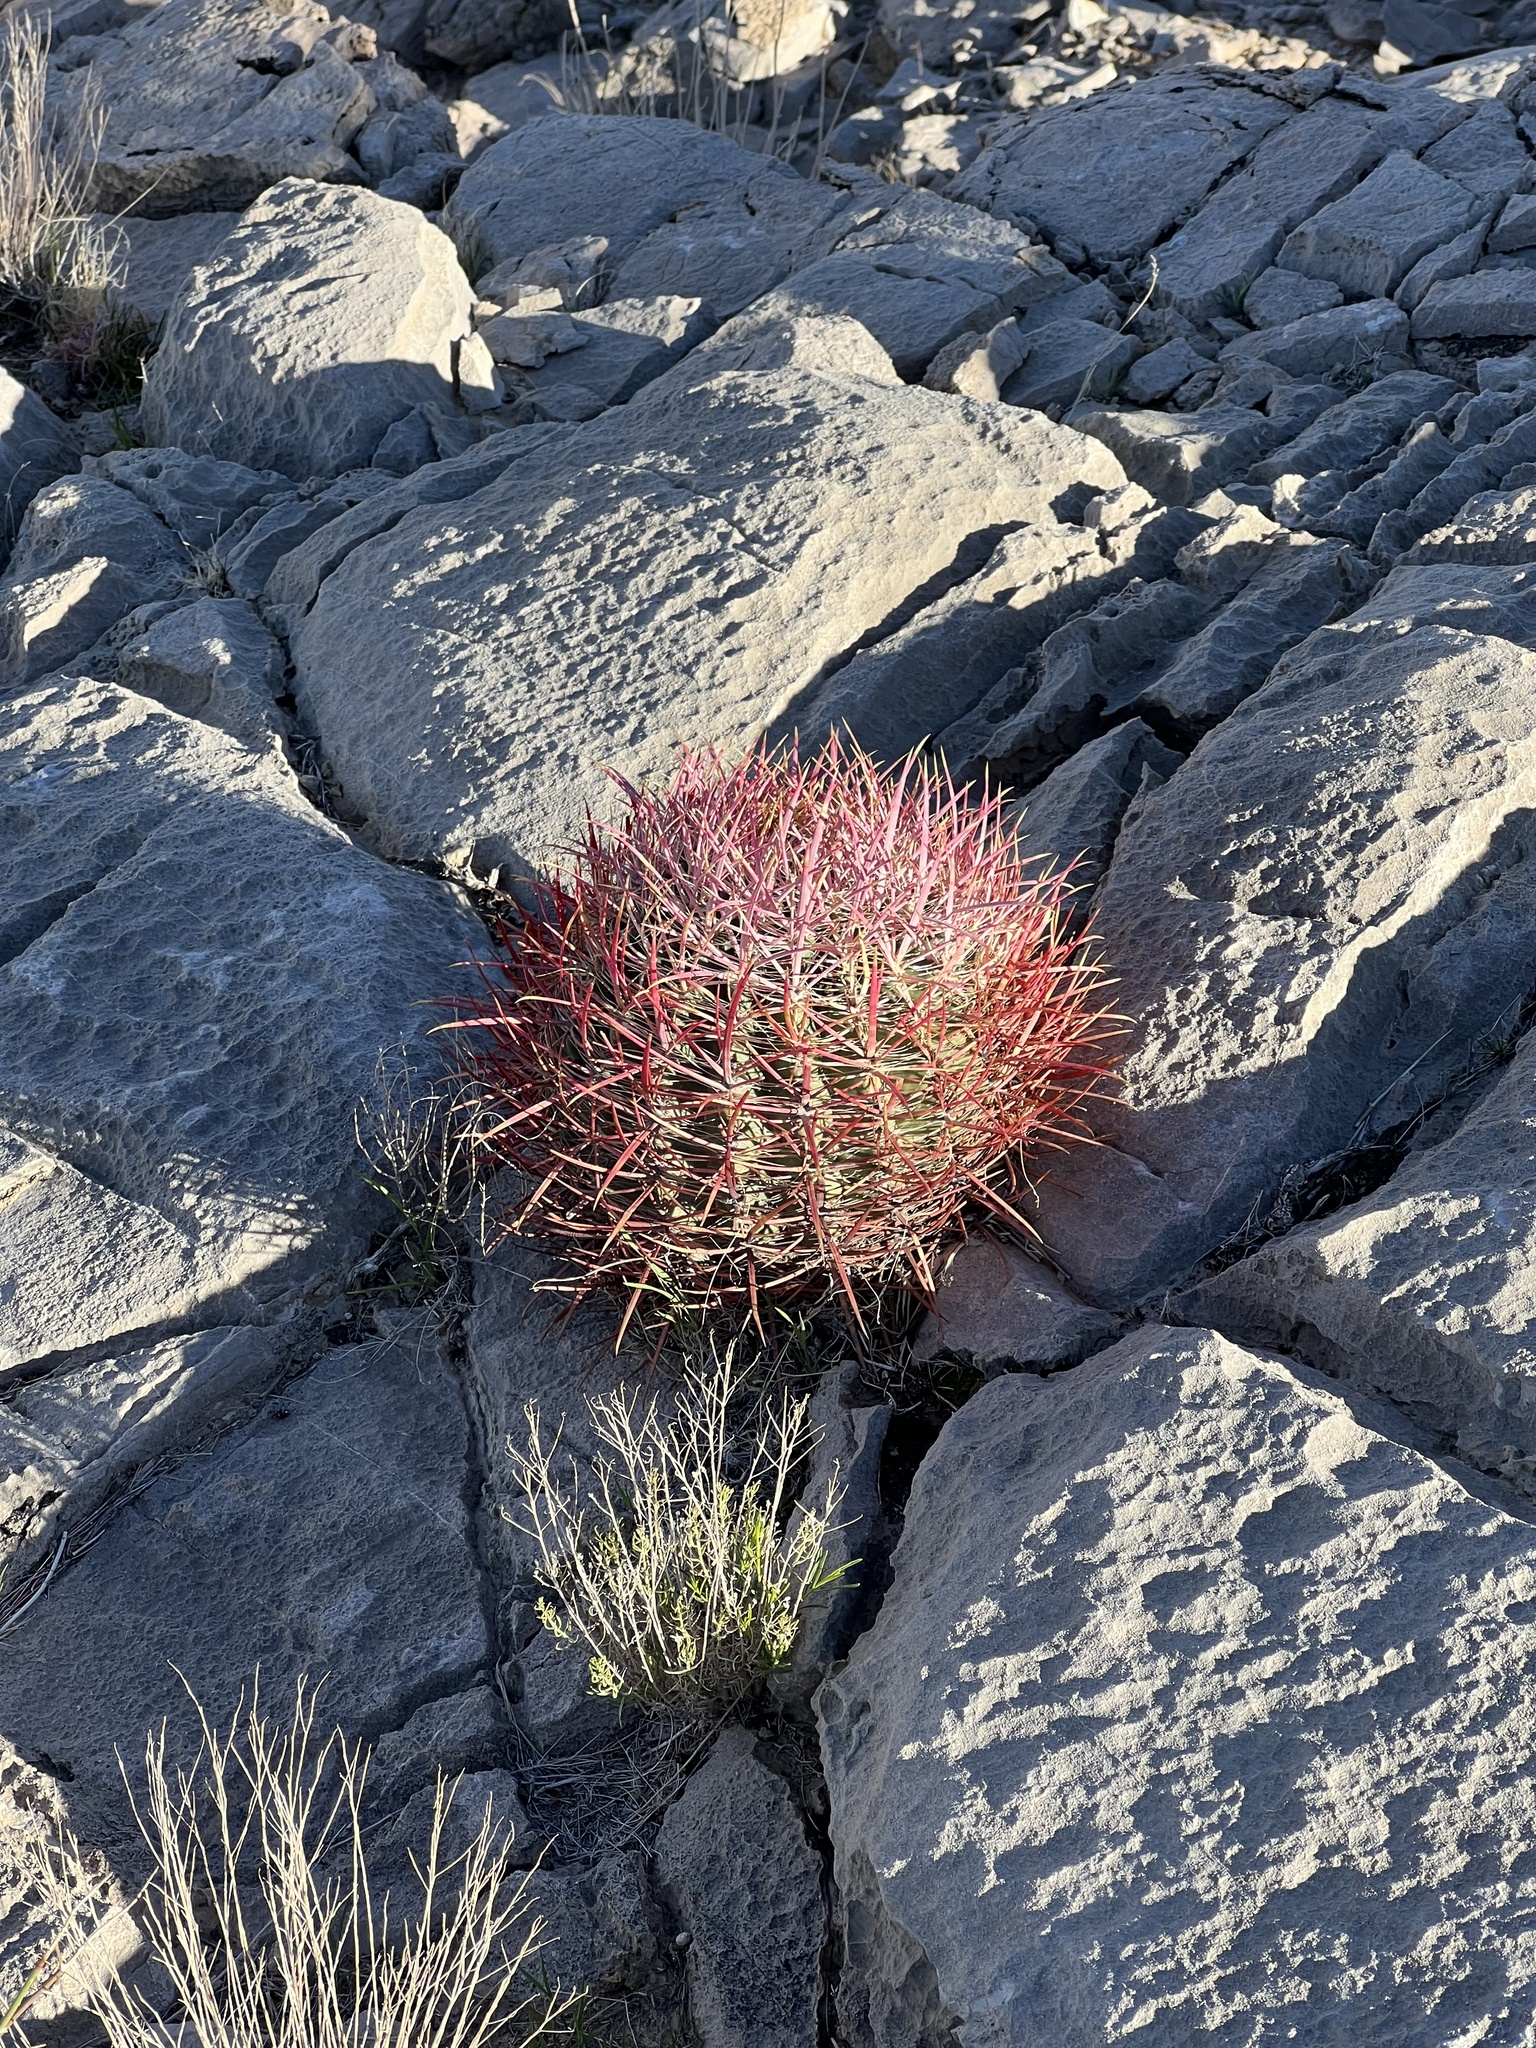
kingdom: Plantae
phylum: Tracheophyta
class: Magnoliopsida
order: Caryophyllales
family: Cactaceae
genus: Ferocactus
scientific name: Ferocactus cylindraceus
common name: California barrel cactus
